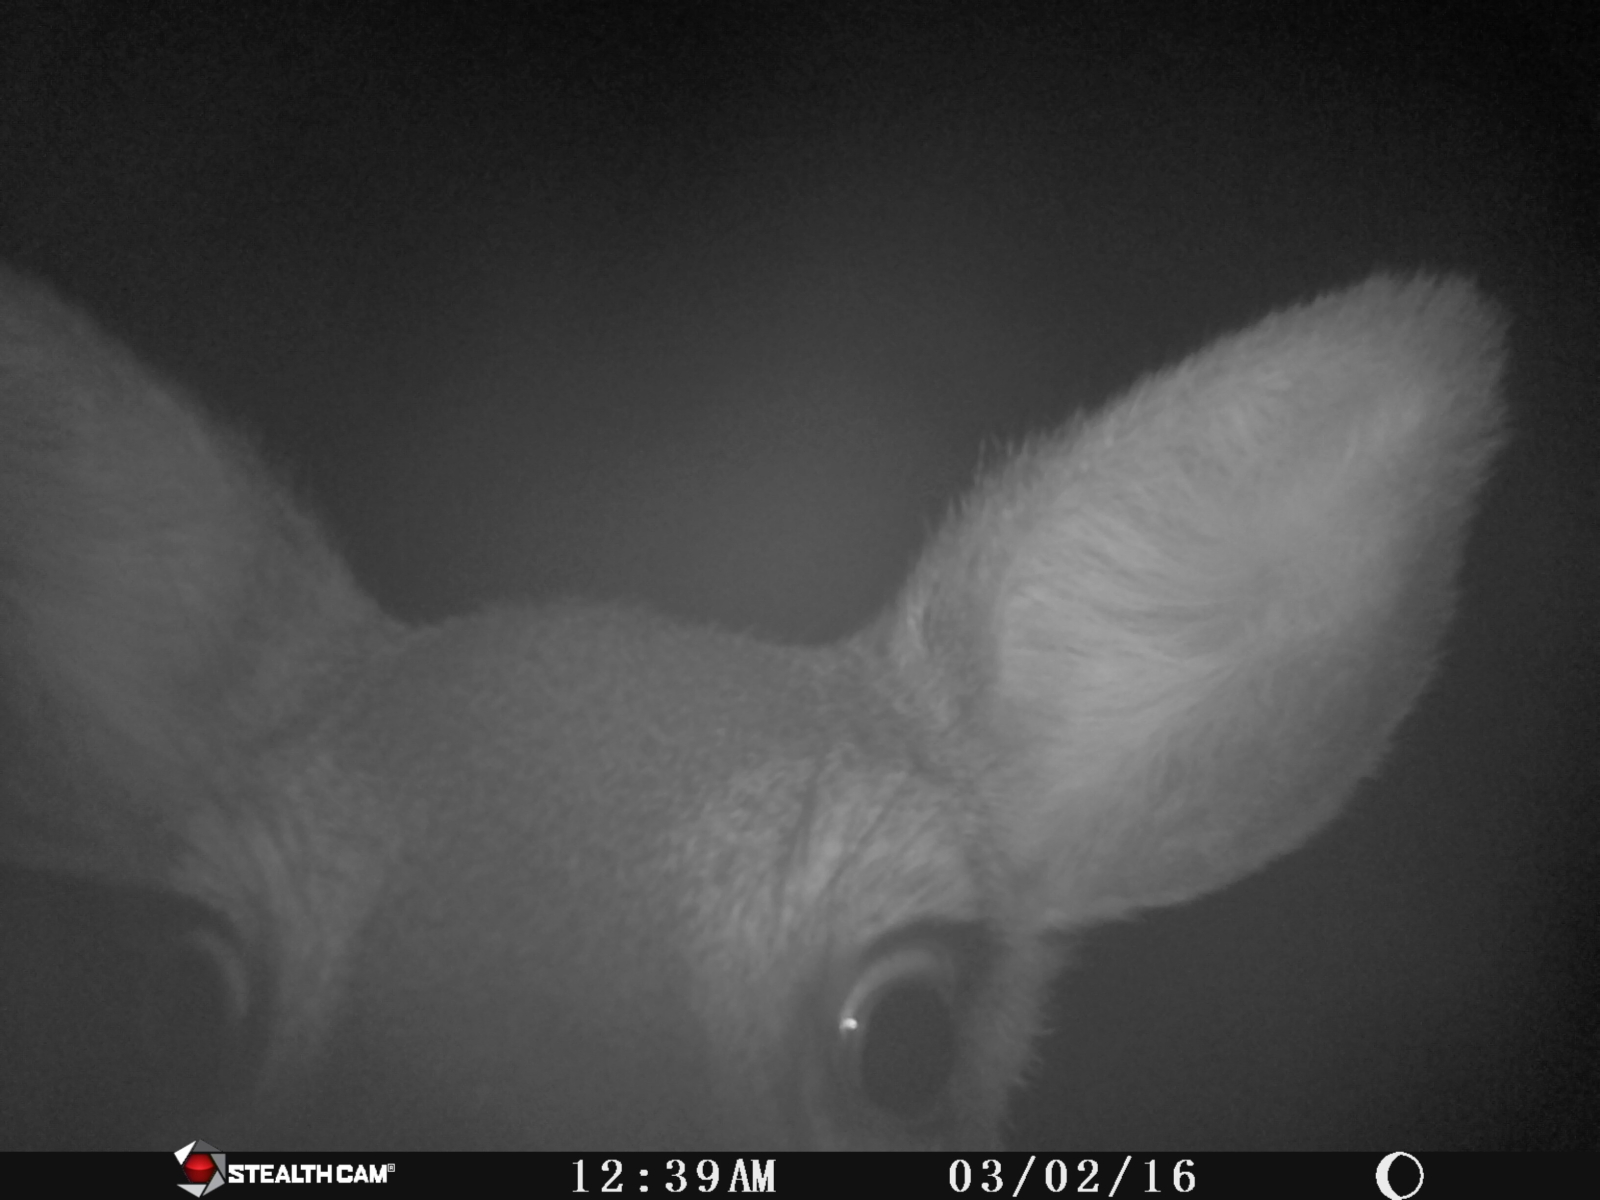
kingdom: Animalia
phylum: Chordata
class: Mammalia
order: Artiodactyla
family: Cervidae
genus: Odocoileus
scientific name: Odocoileus virginianus
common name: White-tailed deer
